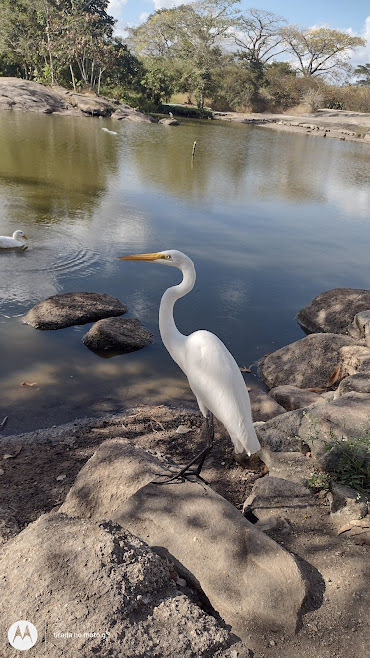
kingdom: Animalia
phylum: Chordata
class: Aves
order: Pelecaniformes
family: Ardeidae
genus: Ardea
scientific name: Ardea alba
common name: Great egret
